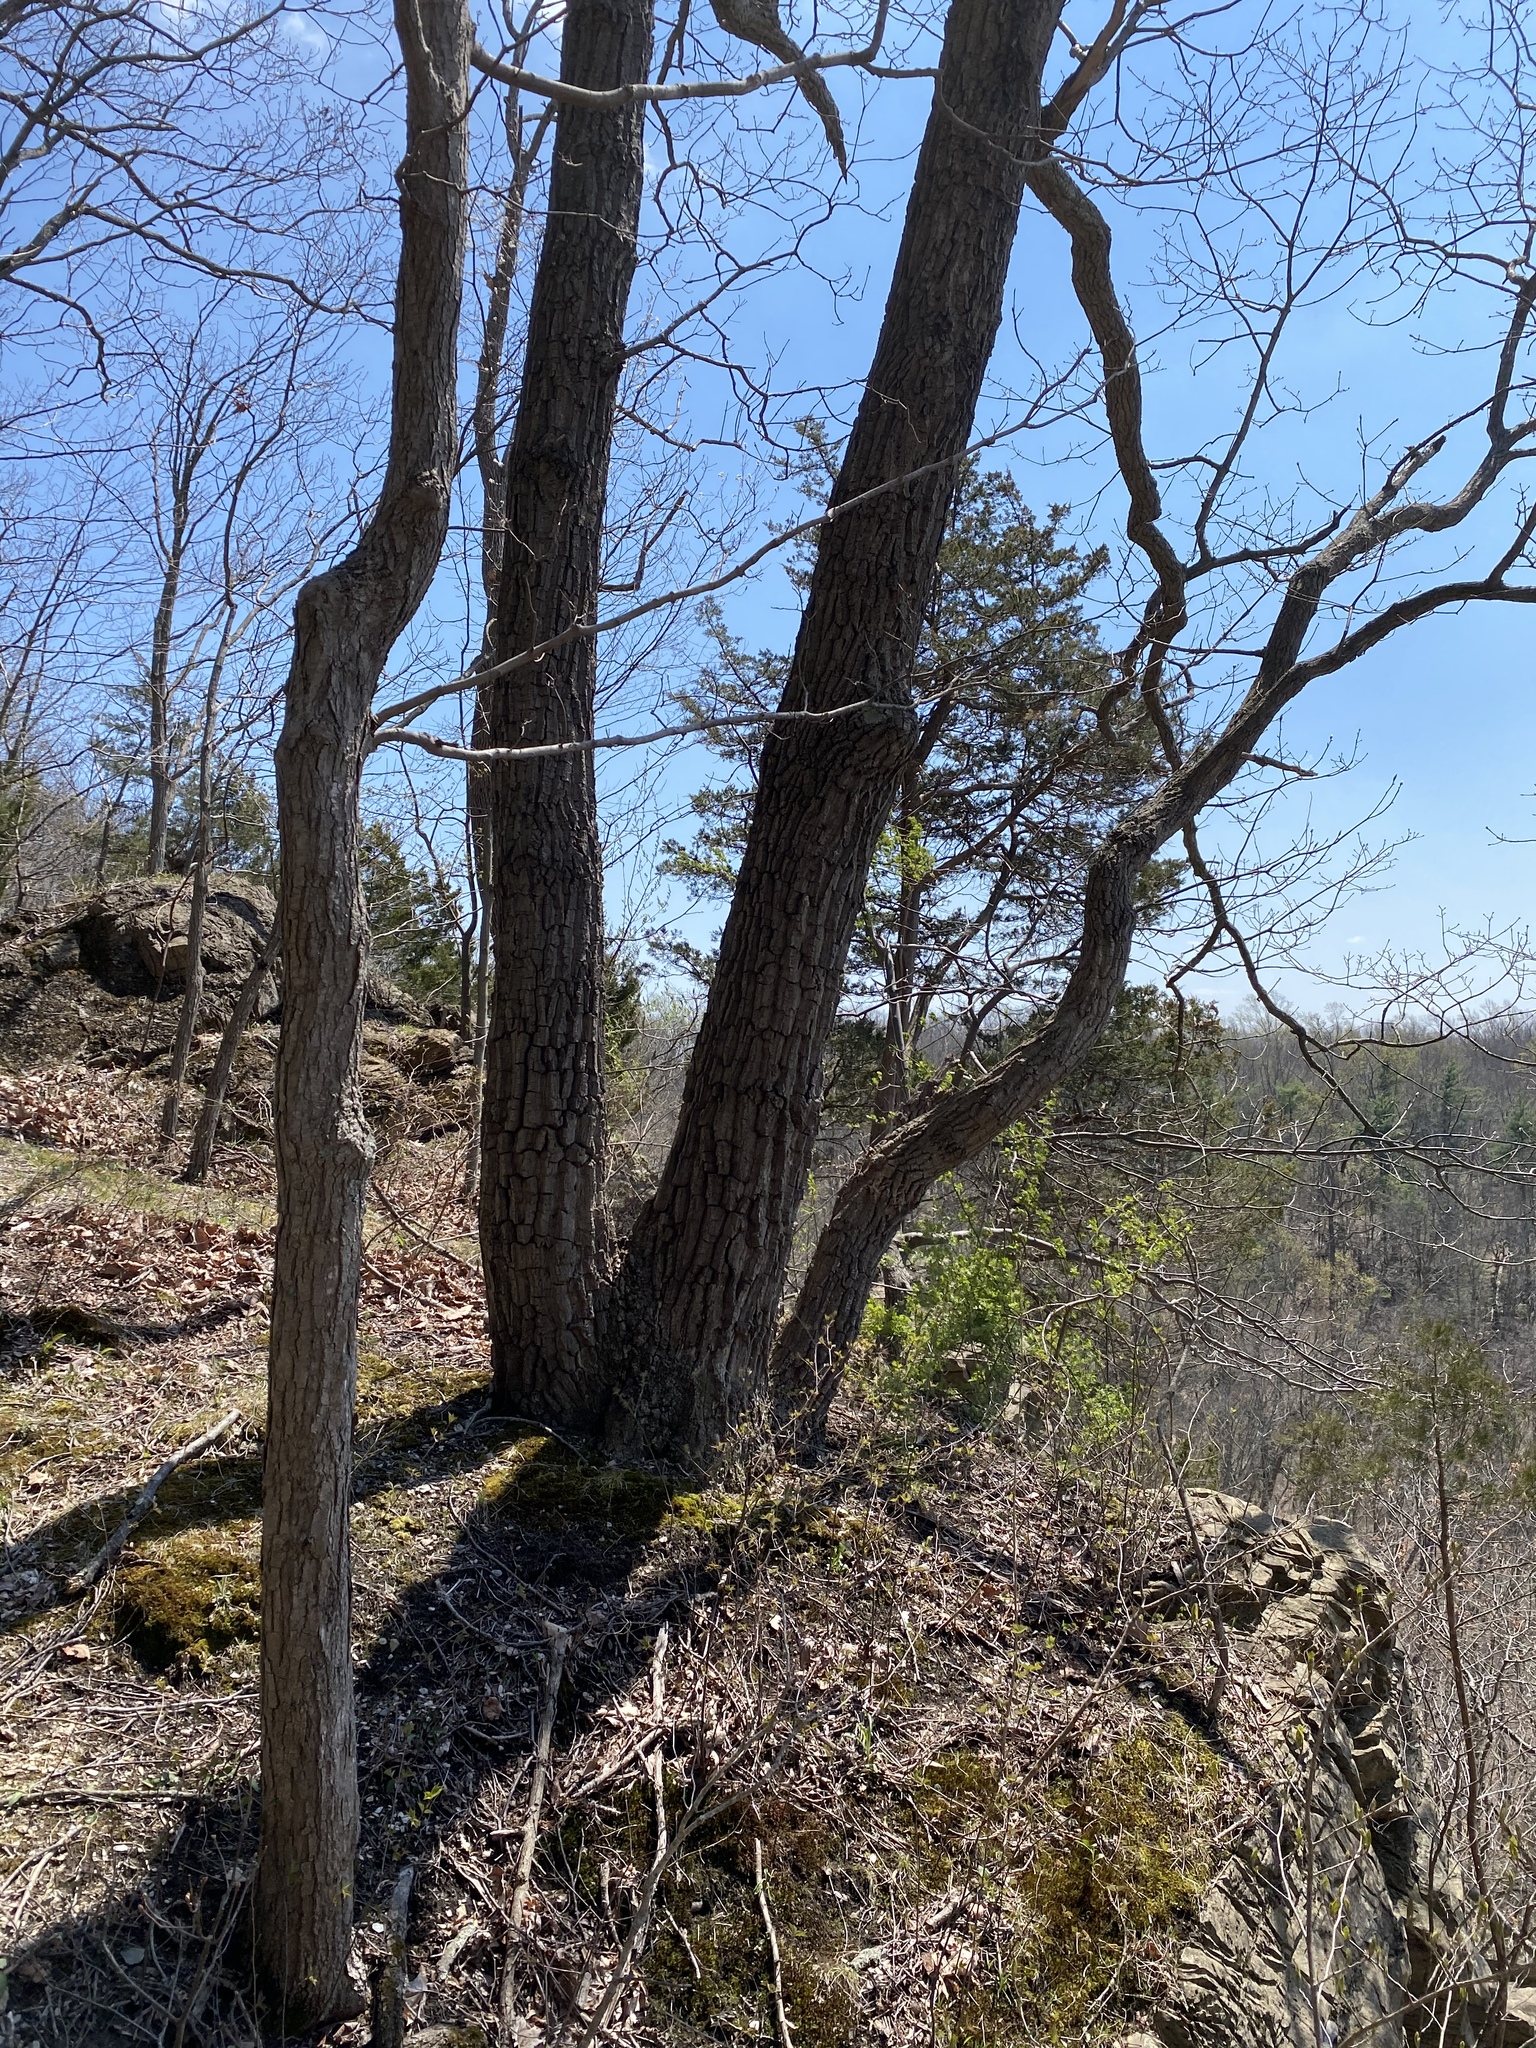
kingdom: Plantae
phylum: Tracheophyta
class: Magnoliopsida
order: Fagales
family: Fagaceae
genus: Quercus
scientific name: Quercus montana
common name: Chestnut oak
